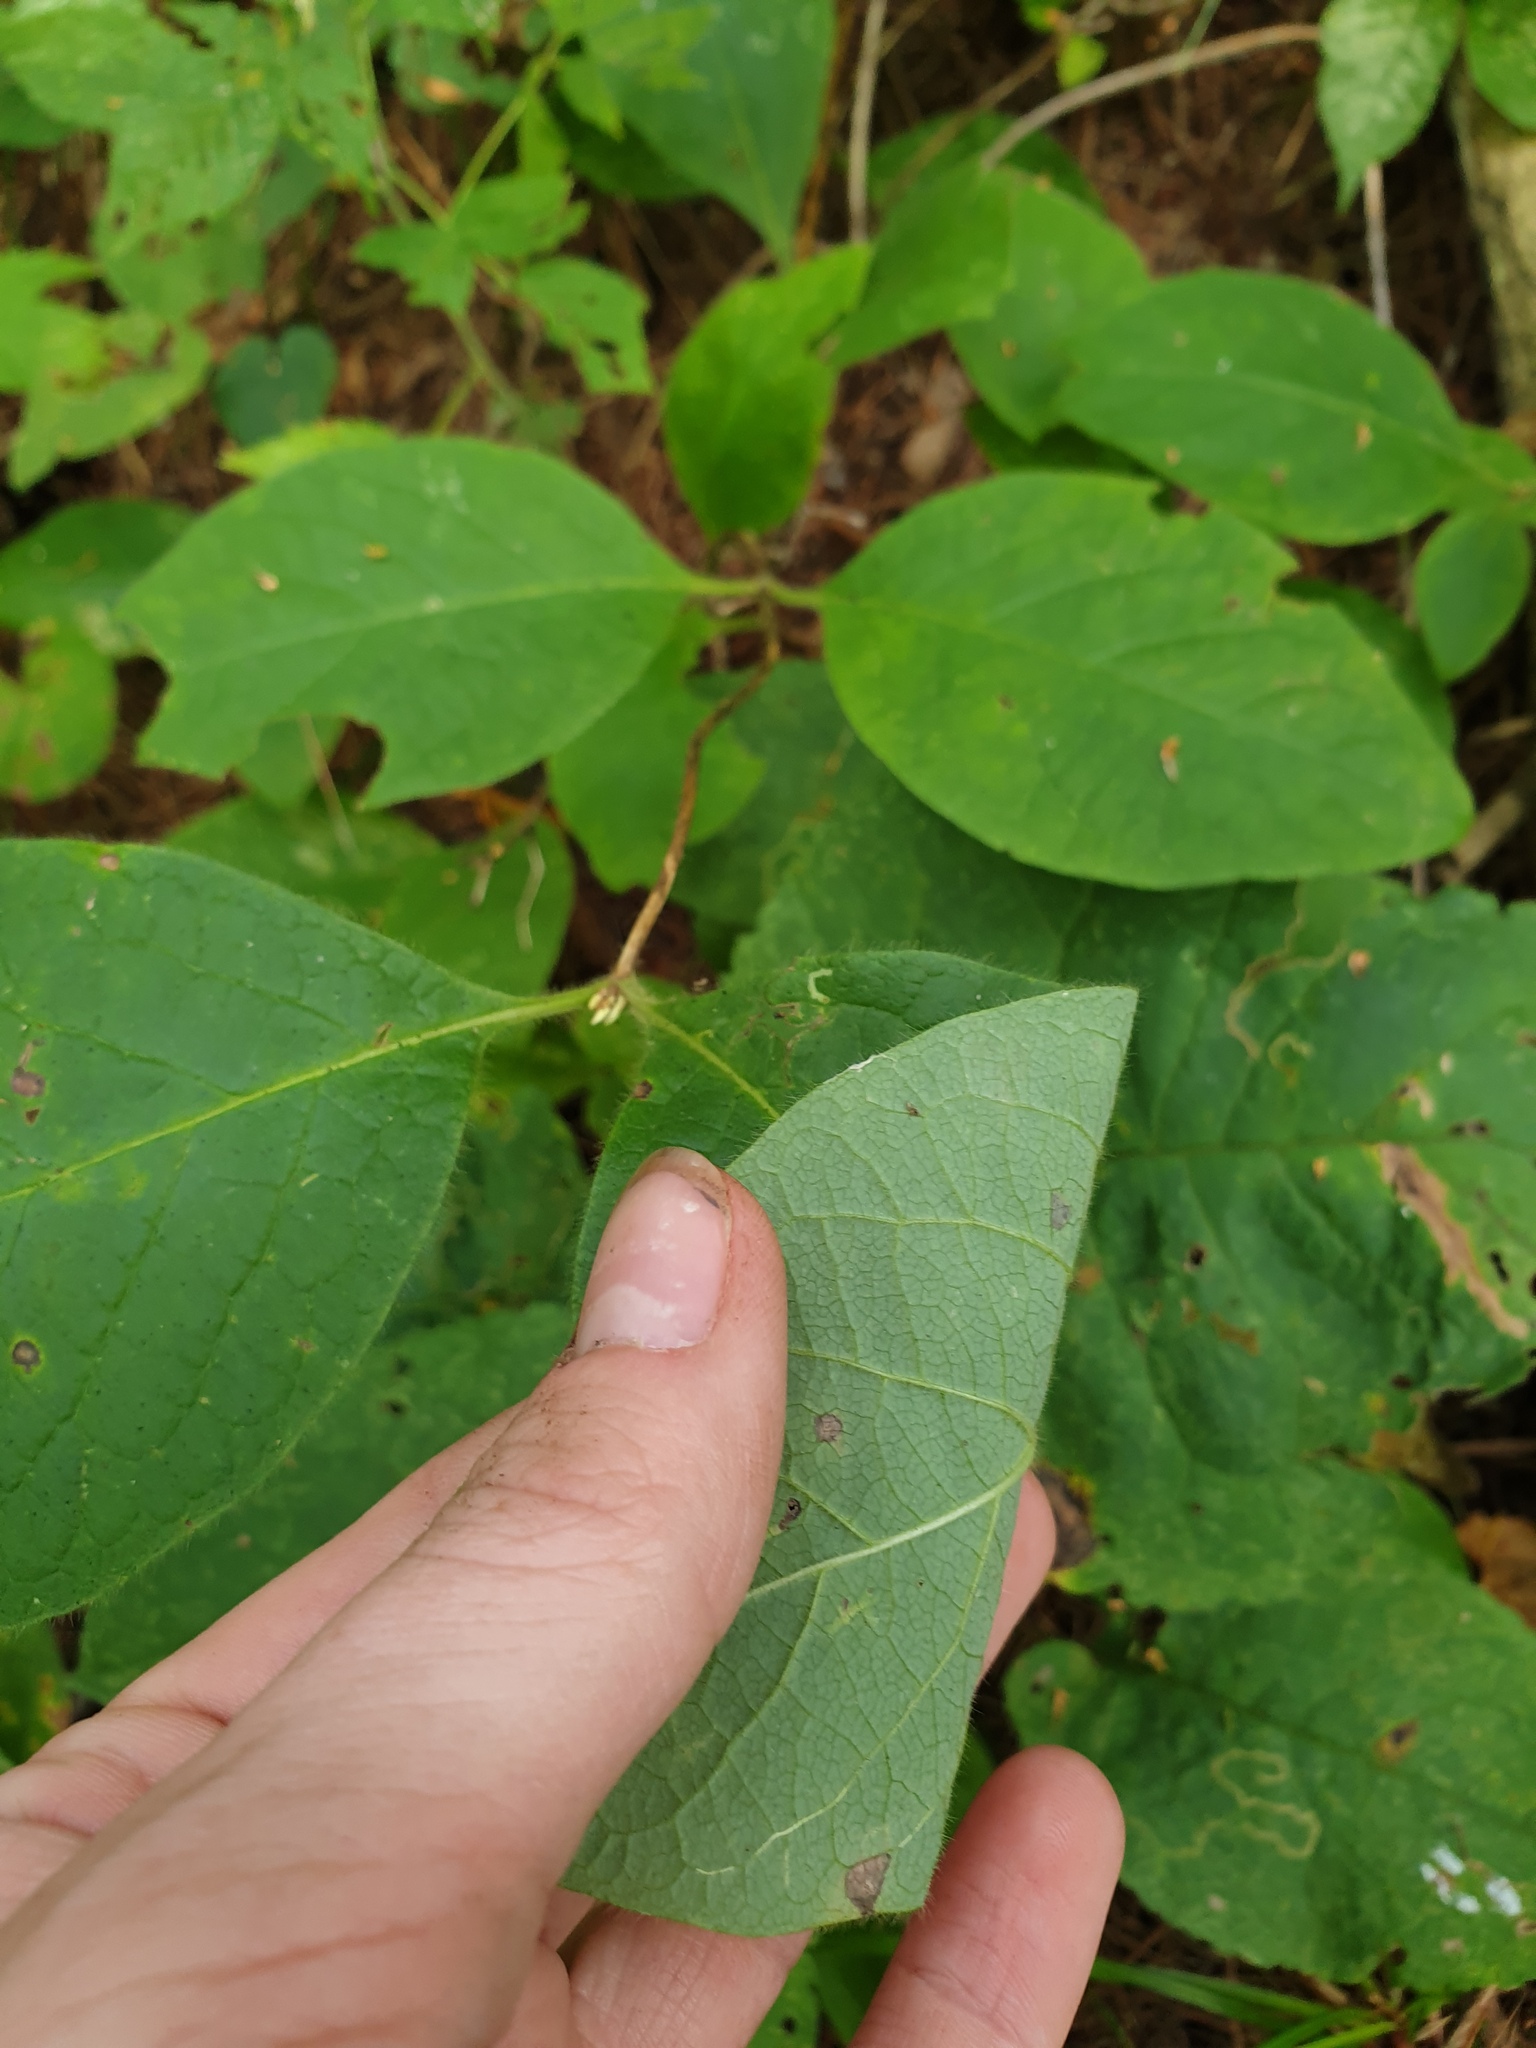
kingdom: Plantae
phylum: Tracheophyta
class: Magnoliopsida
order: Dipsacales
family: Caprifoliaceae
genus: Lonicera
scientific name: Lonicera hirsuta
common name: Hairy honeysuckle
